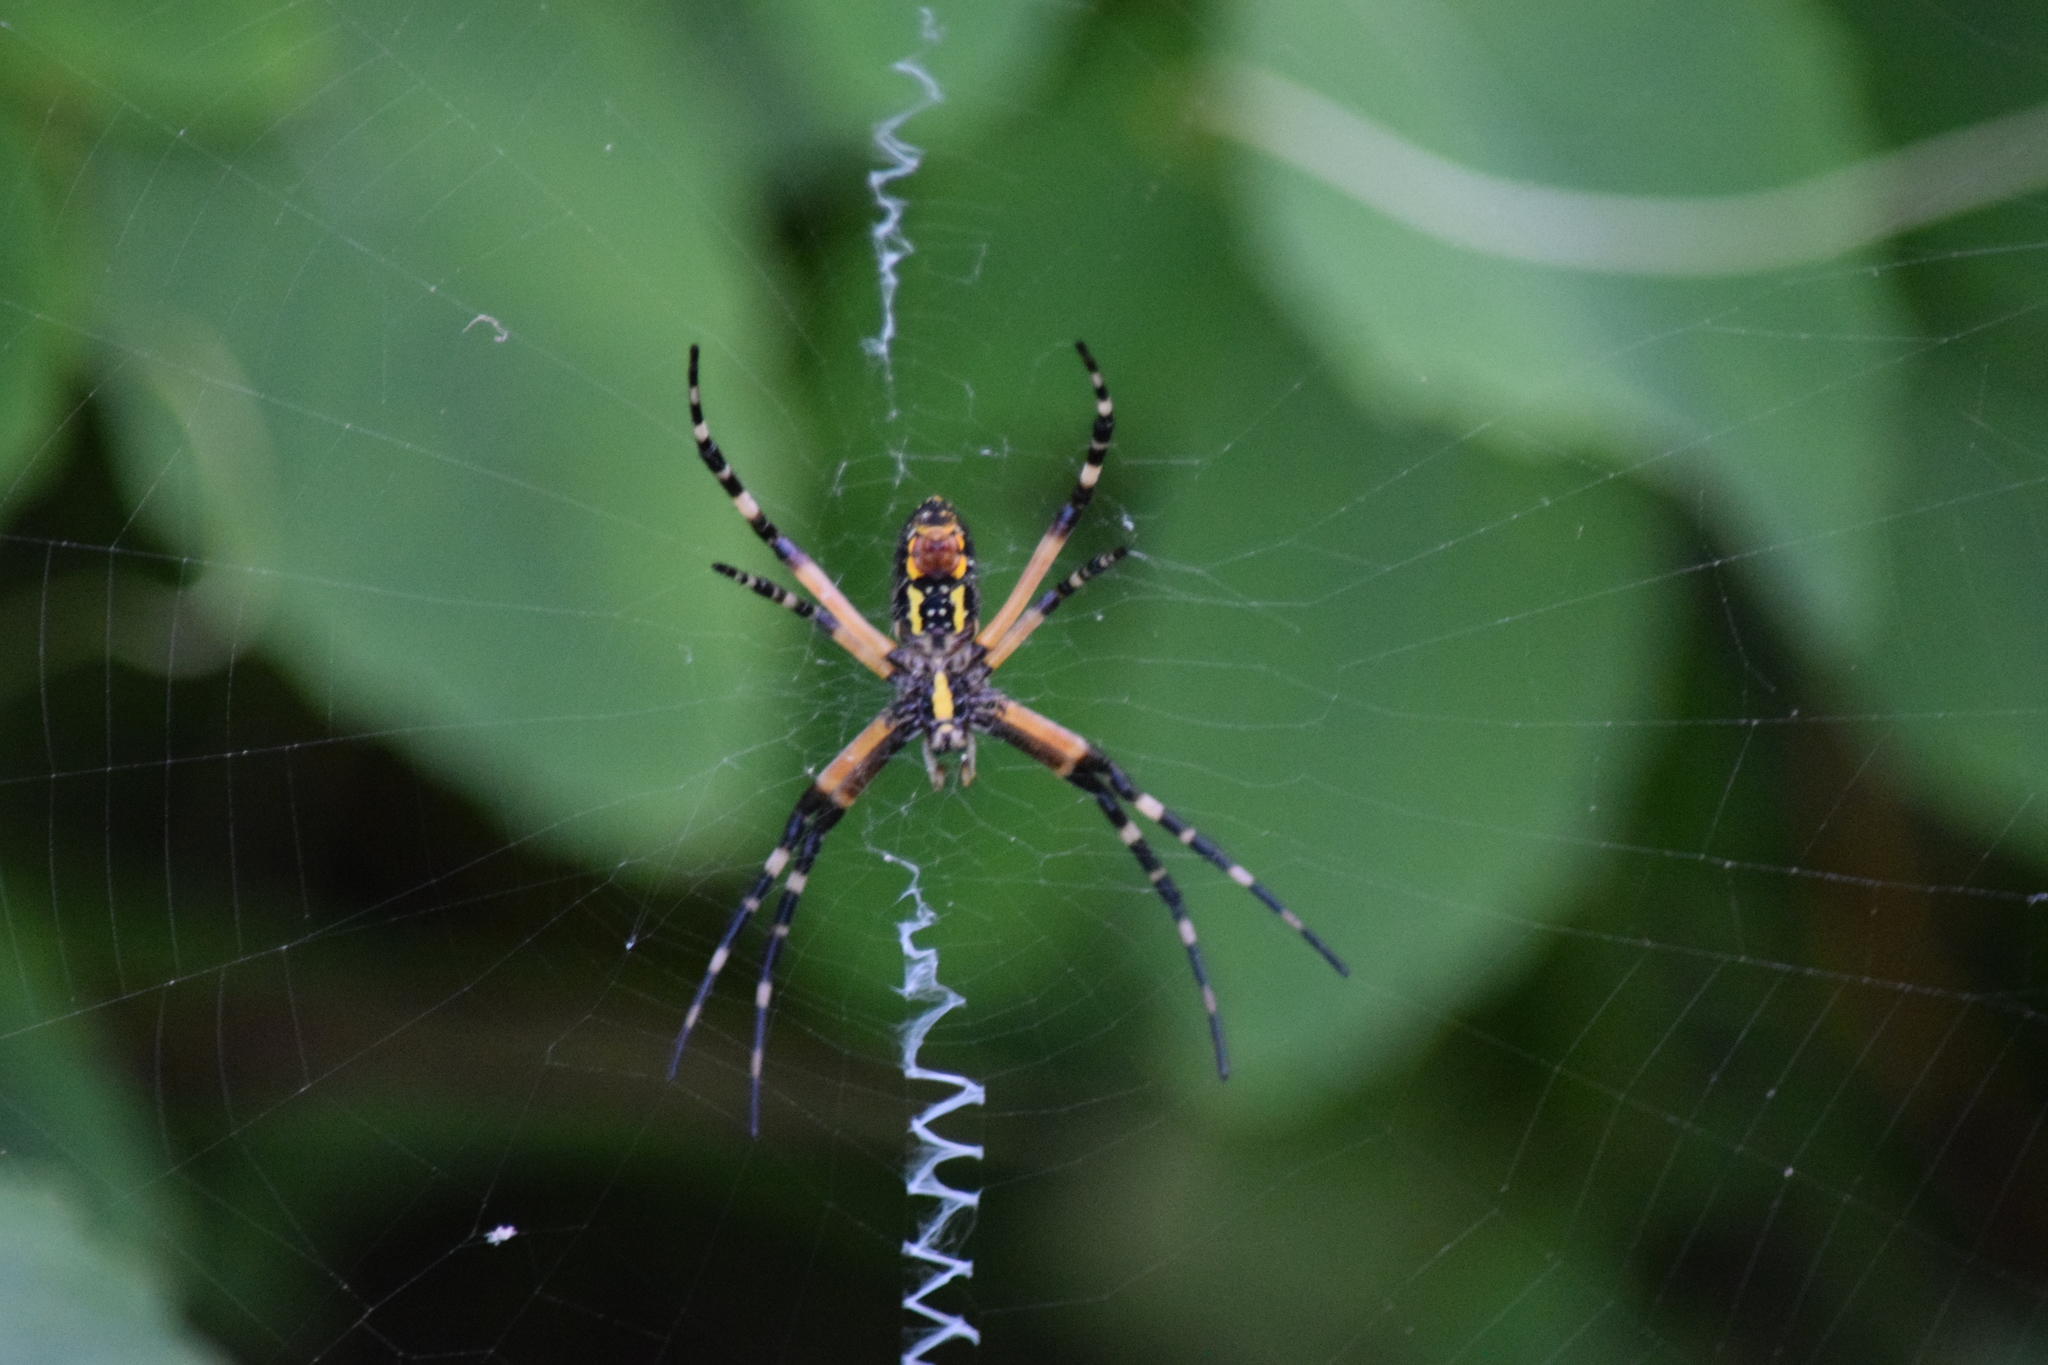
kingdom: Animalia
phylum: Arthropoda
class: Arachnida
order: Araneae
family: Araneidae
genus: Argiope
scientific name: Argiope aurantia
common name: Orb weavers
